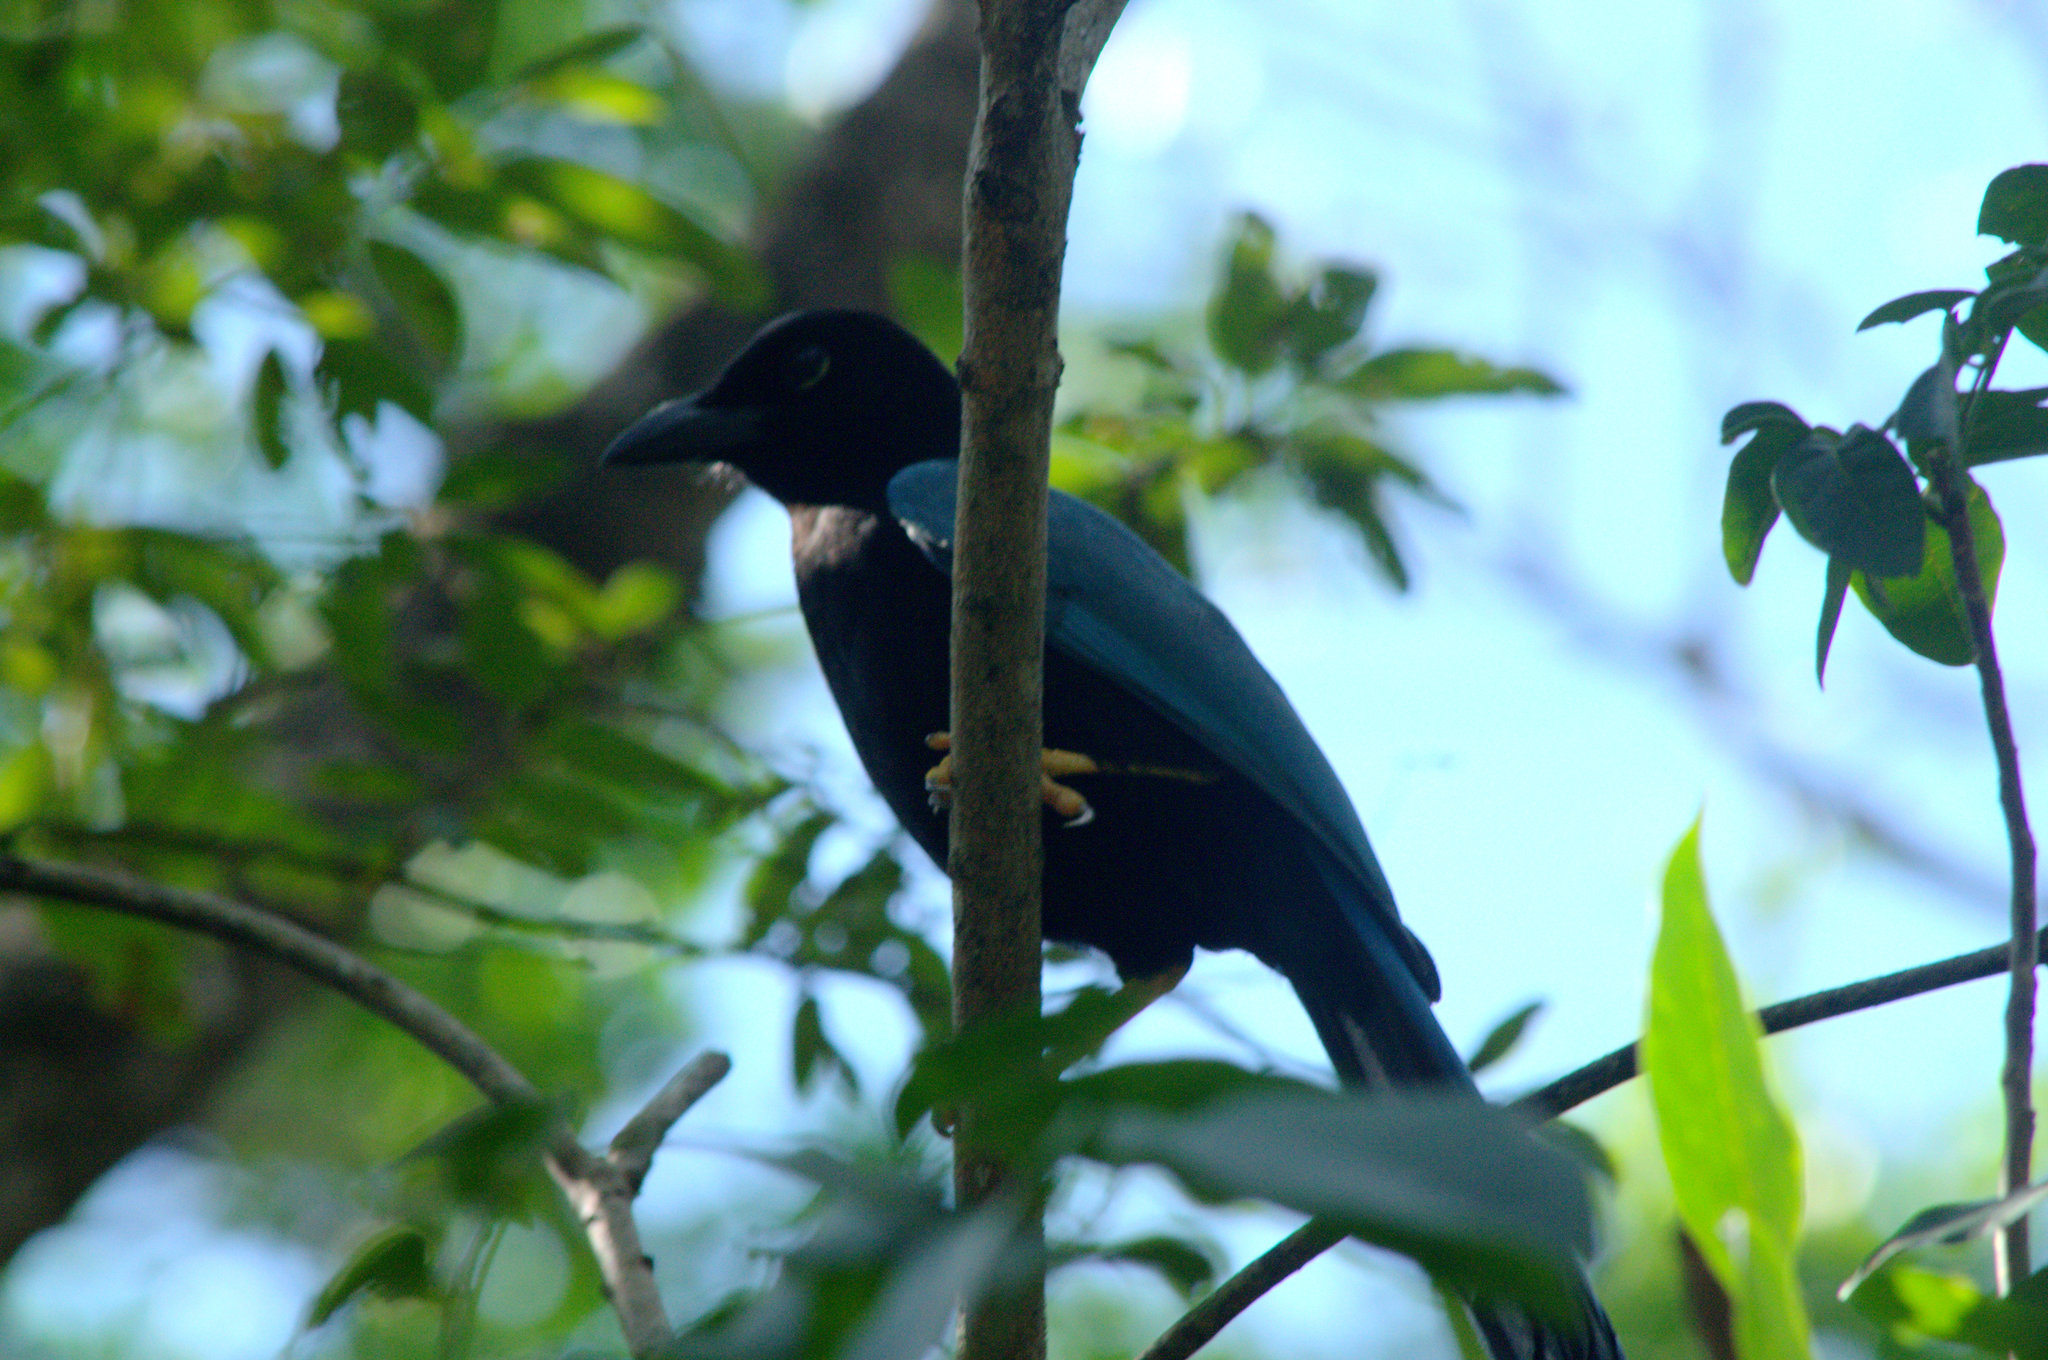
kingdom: Animalia
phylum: Chordata
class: Aves
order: Passeriformes
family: Corvidae
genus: Cyanocorax
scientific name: Cyanocorax yucatanicus
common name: Yucatan jay
